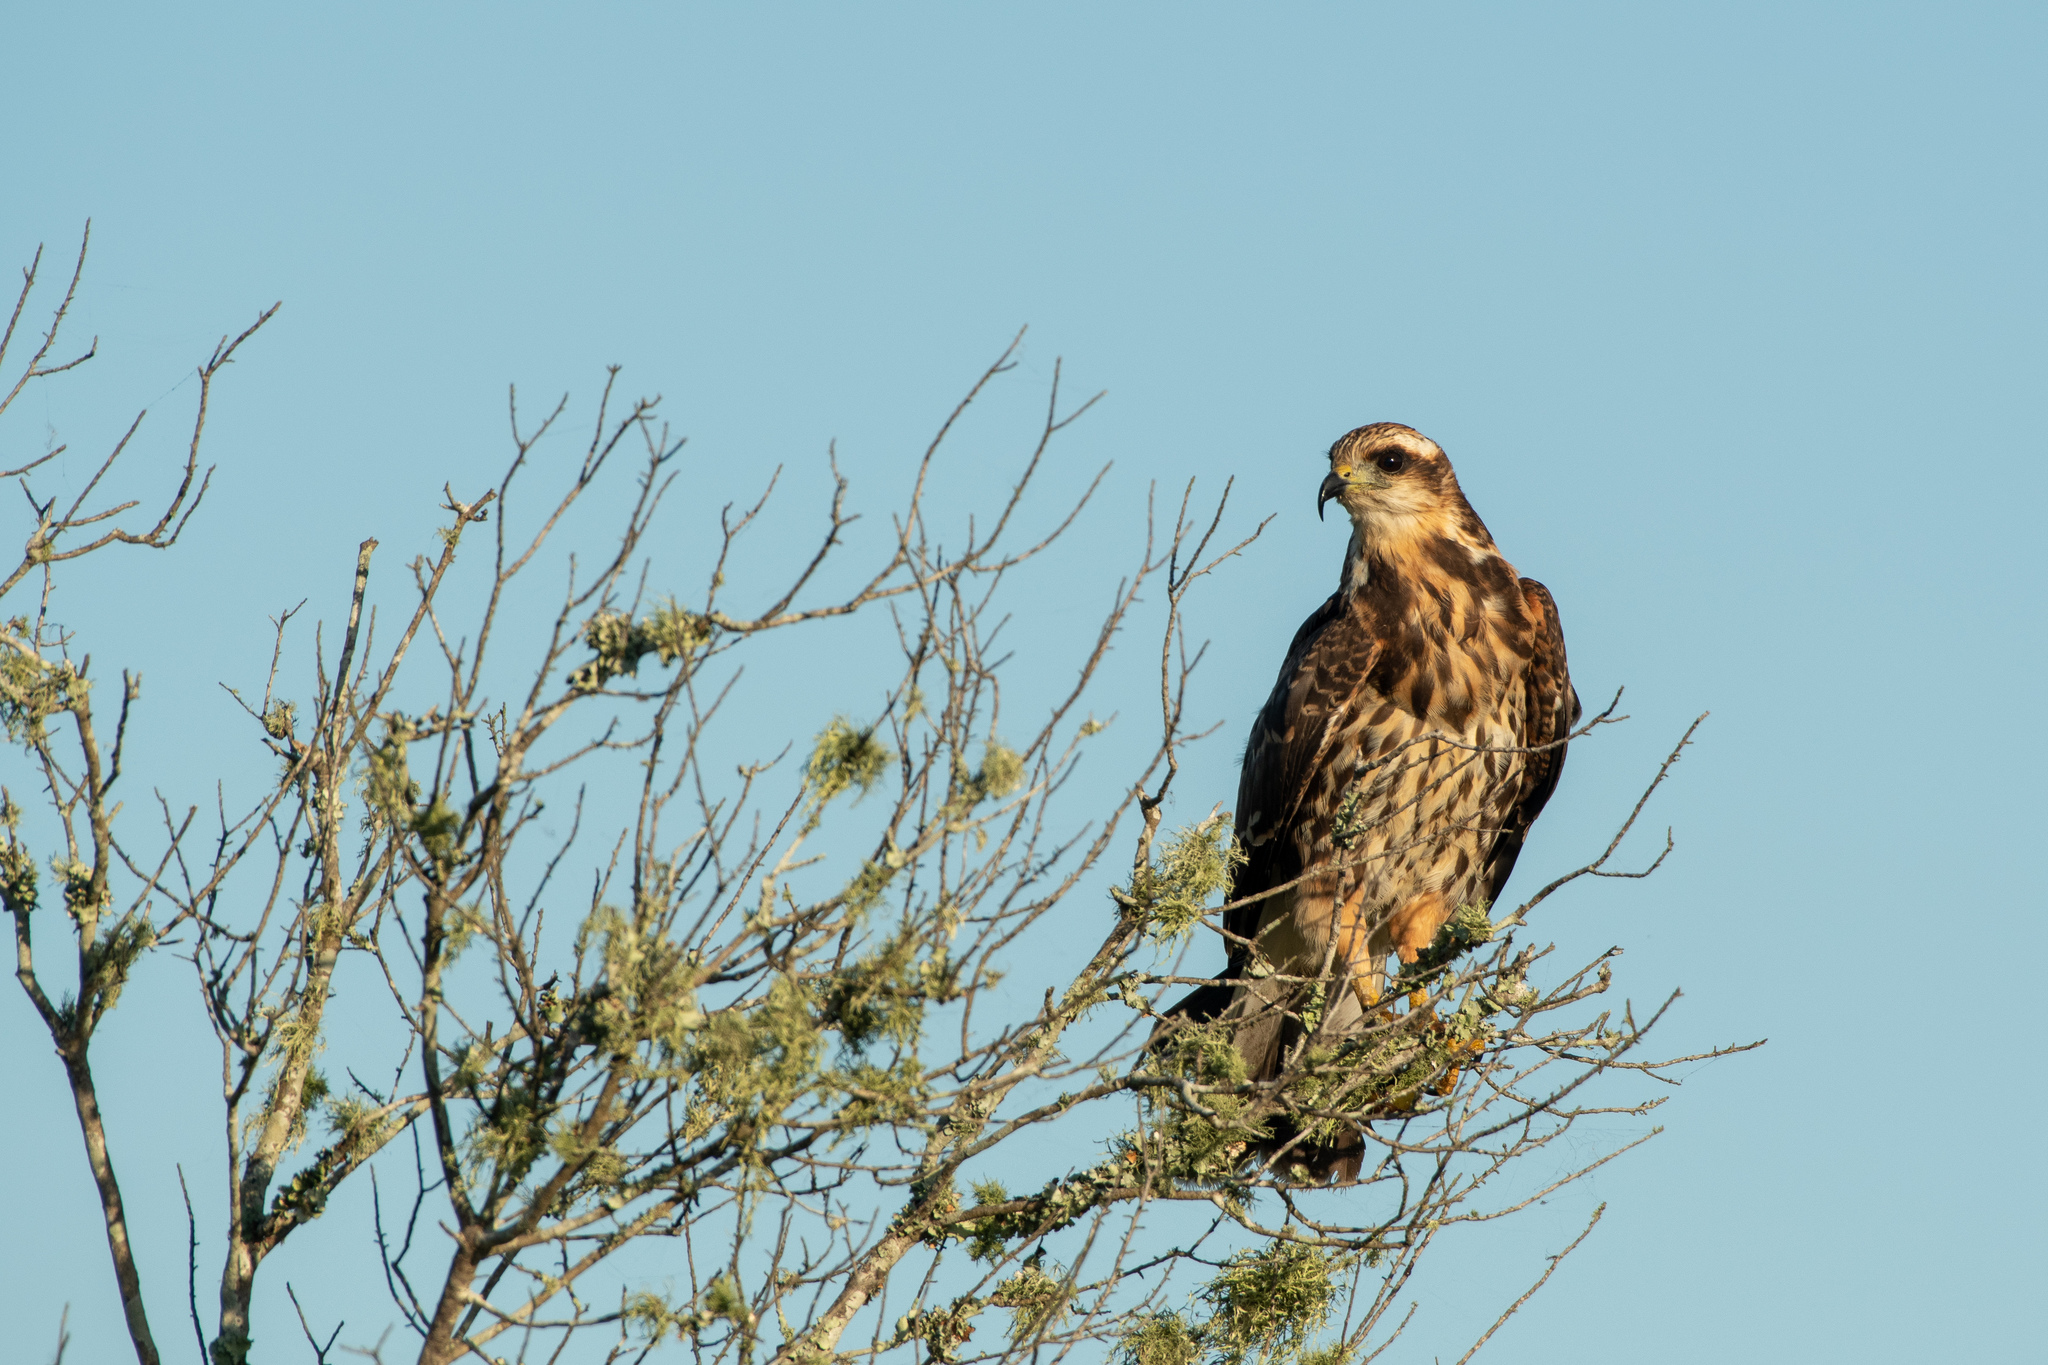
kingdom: Animalia
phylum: Chordata
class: Aves
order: Accipitriformes
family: Accipitridae
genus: Rostrhamus
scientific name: Rostrhamus sociabilis
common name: Snail kite
